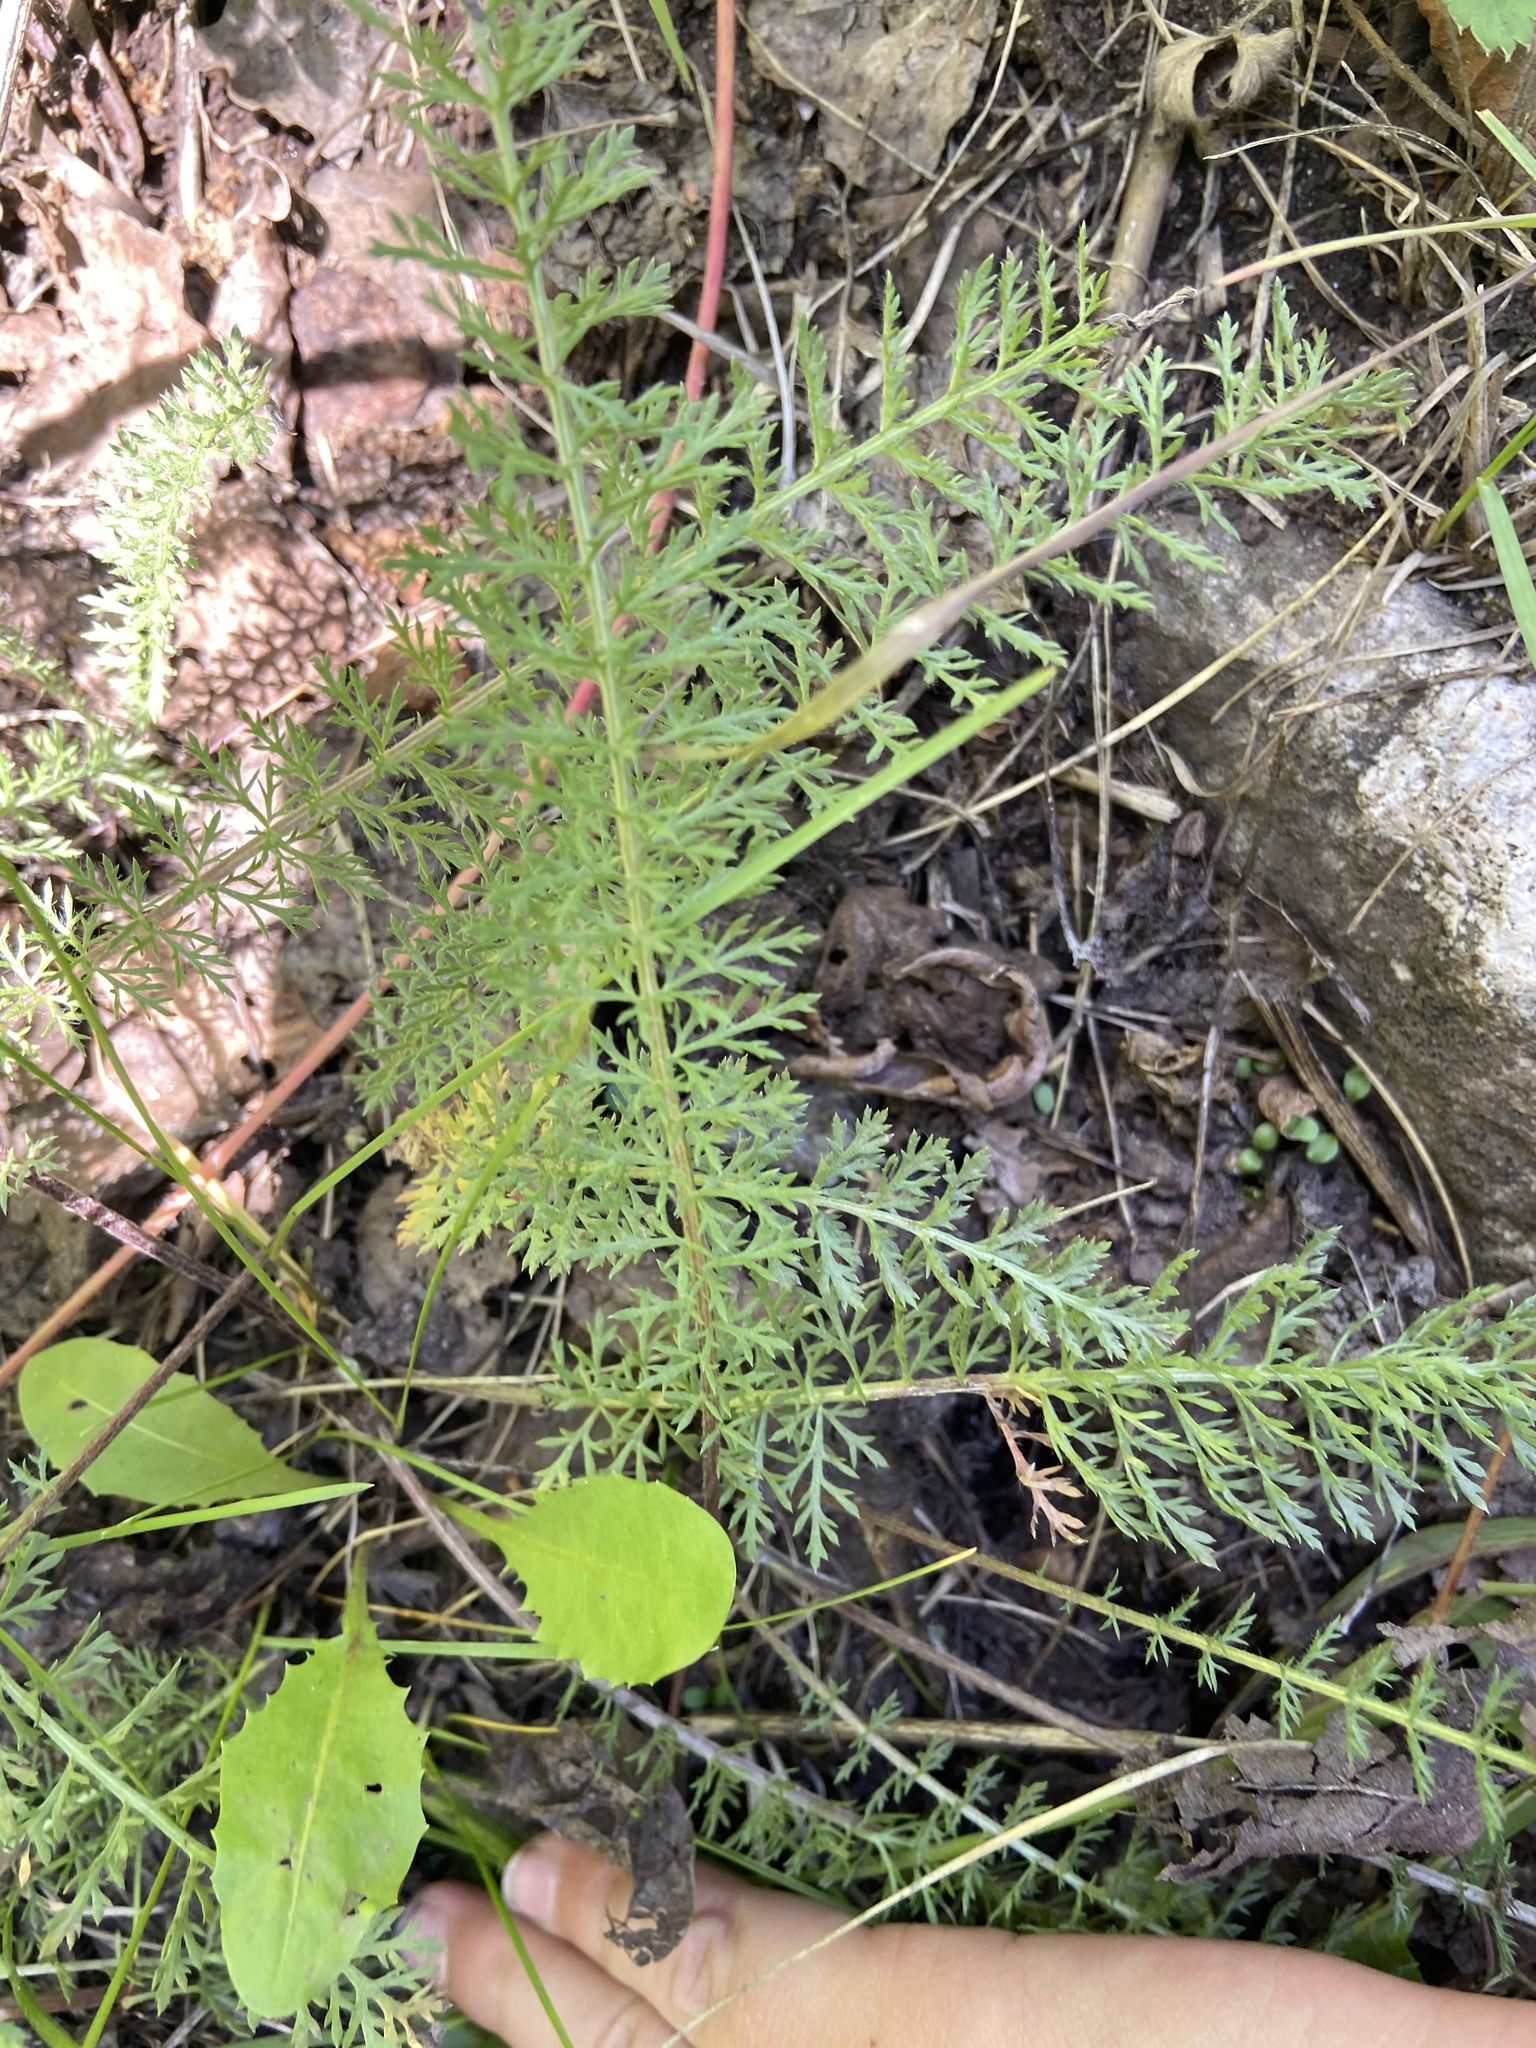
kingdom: Plantae
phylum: Tracheophyta
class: Magnoliopsida
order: Asterales
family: Asteraceae
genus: Achillea
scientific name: Achillea millefolium
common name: Yarrow
